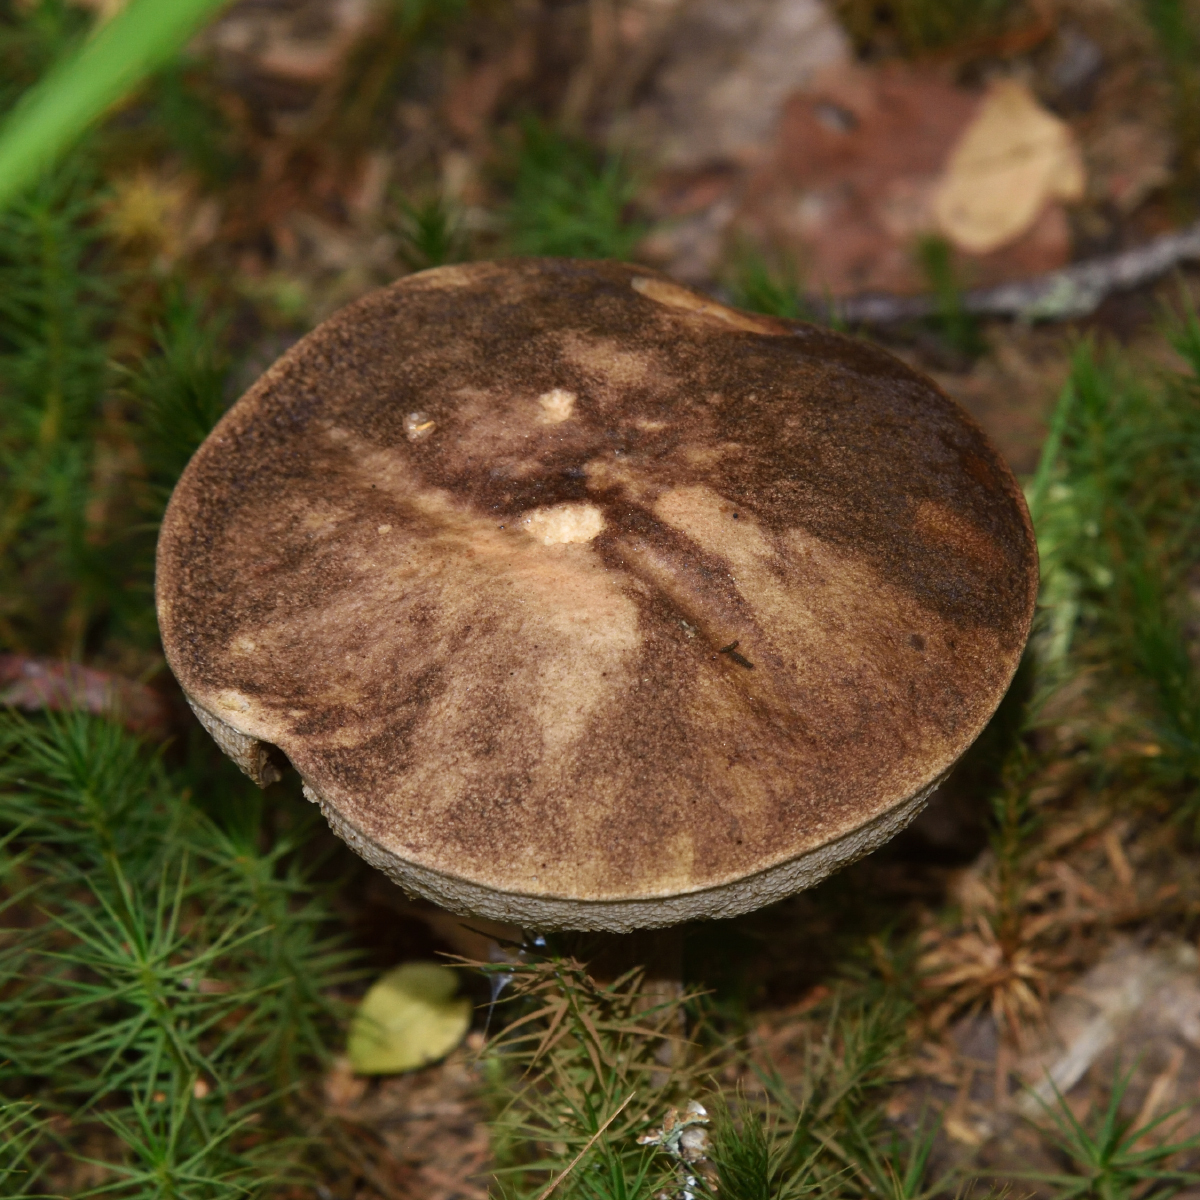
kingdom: Fungi
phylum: Basidiomycota
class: Agaricomycetes
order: Boletales
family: Boletaceae
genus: Leccinum
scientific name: Leccinum variicolor
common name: Mottled bolete
